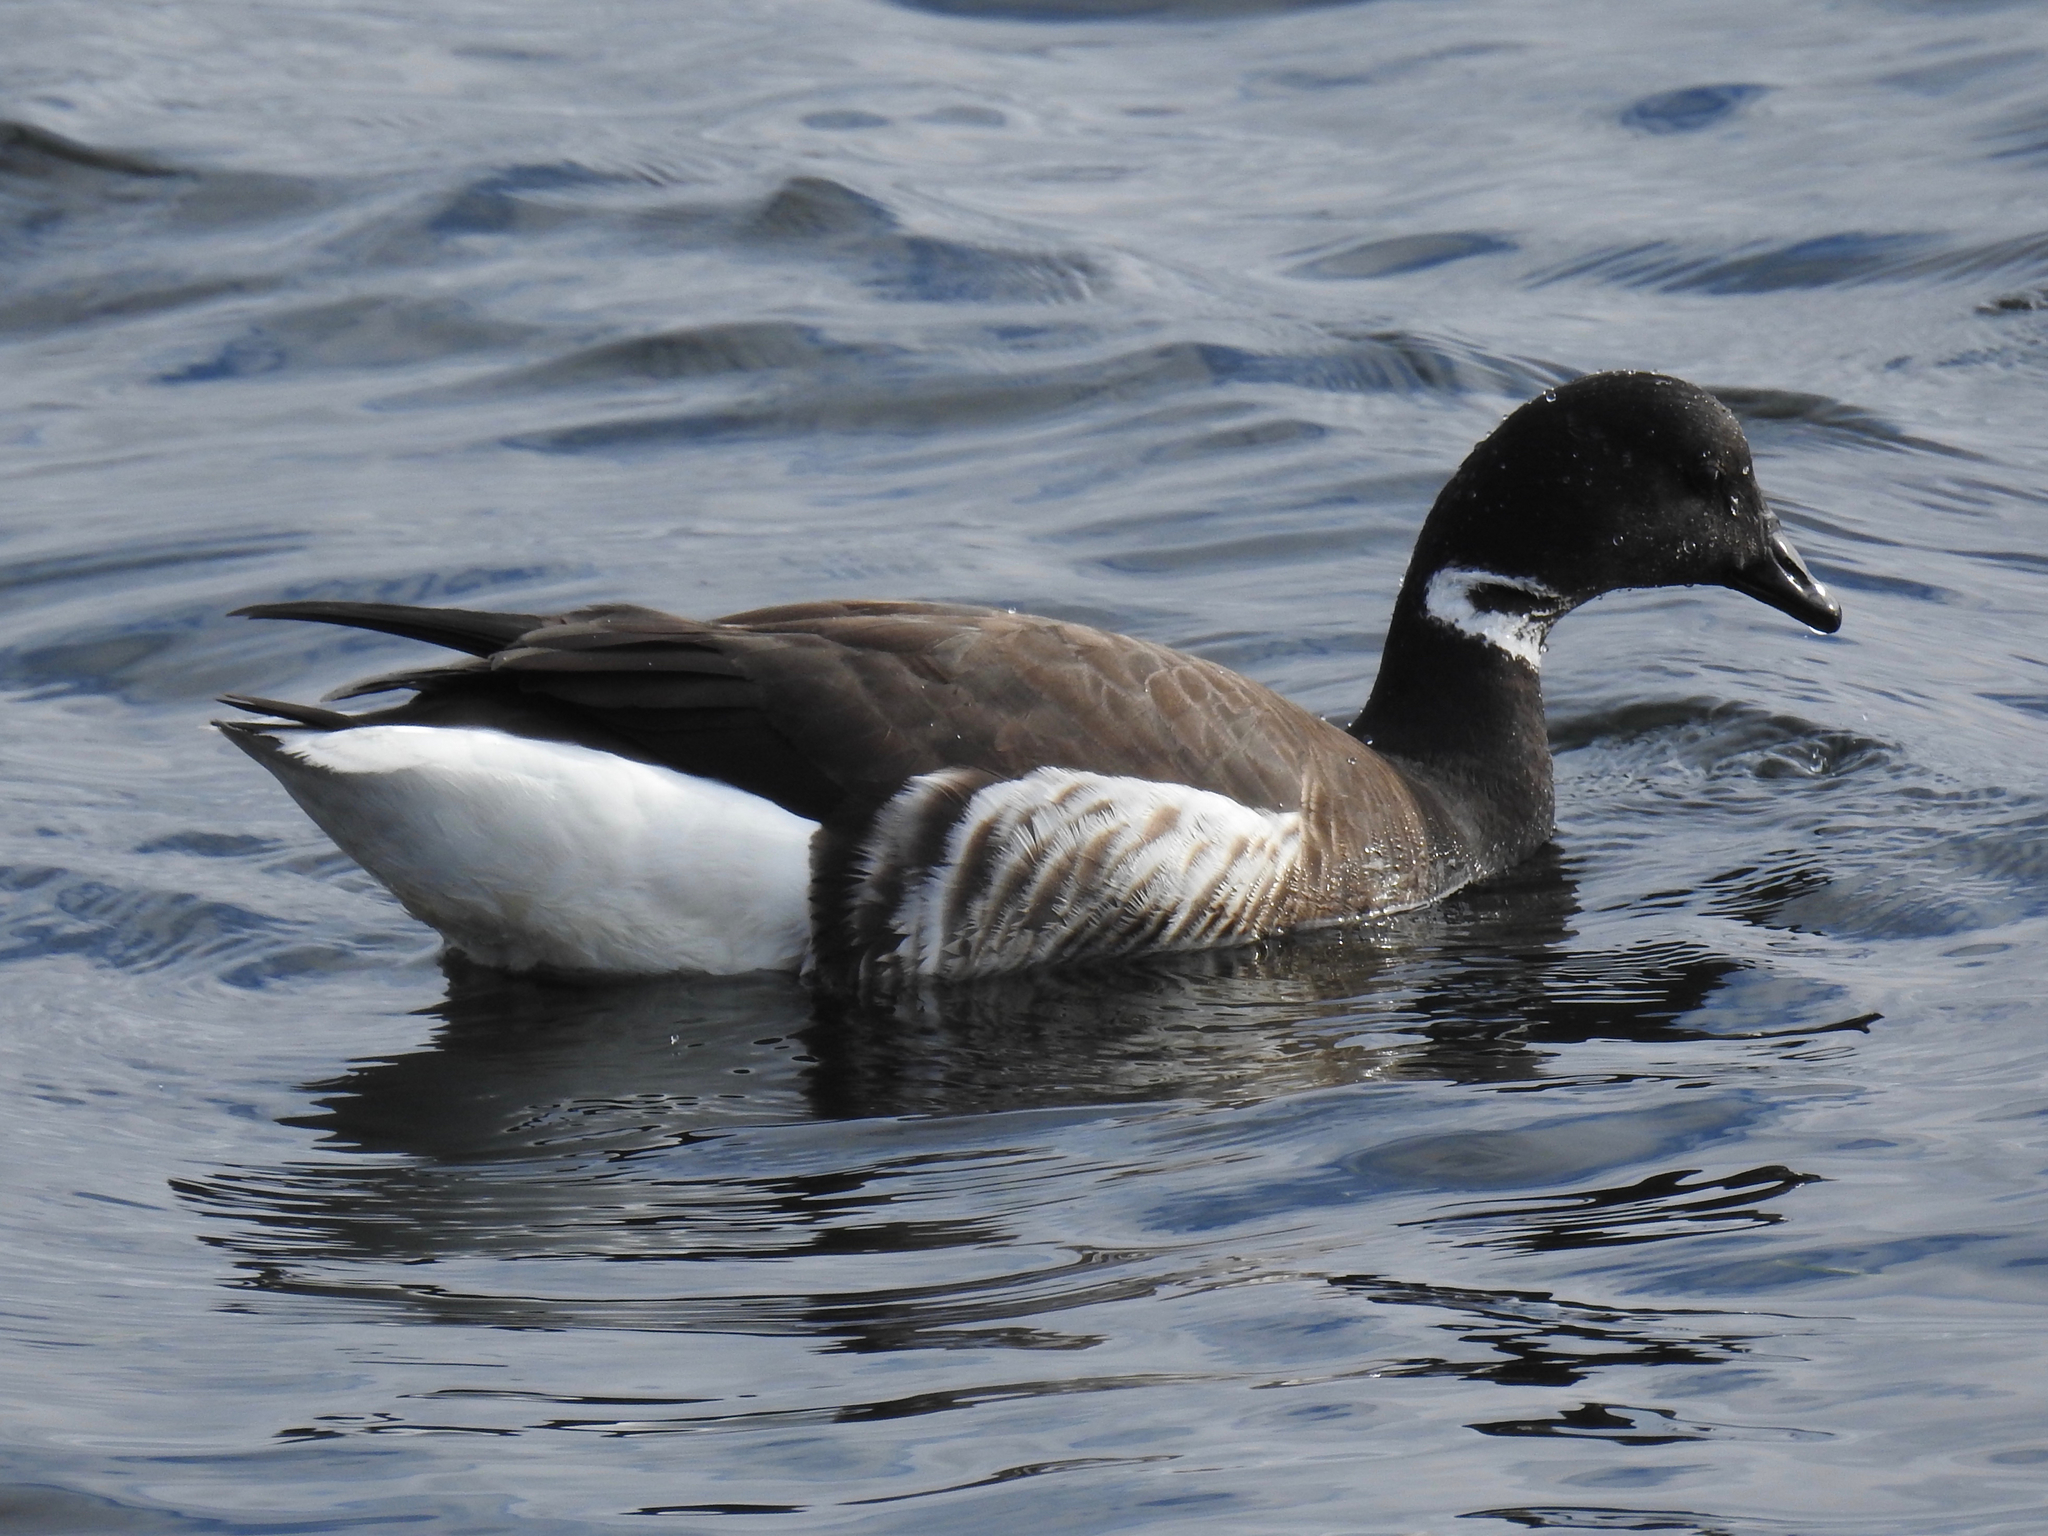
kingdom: Animalia
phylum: Chordata
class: Aves
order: Anseriformes
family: Anatidae
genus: Branta
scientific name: Branta bernicla
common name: Brant goose
